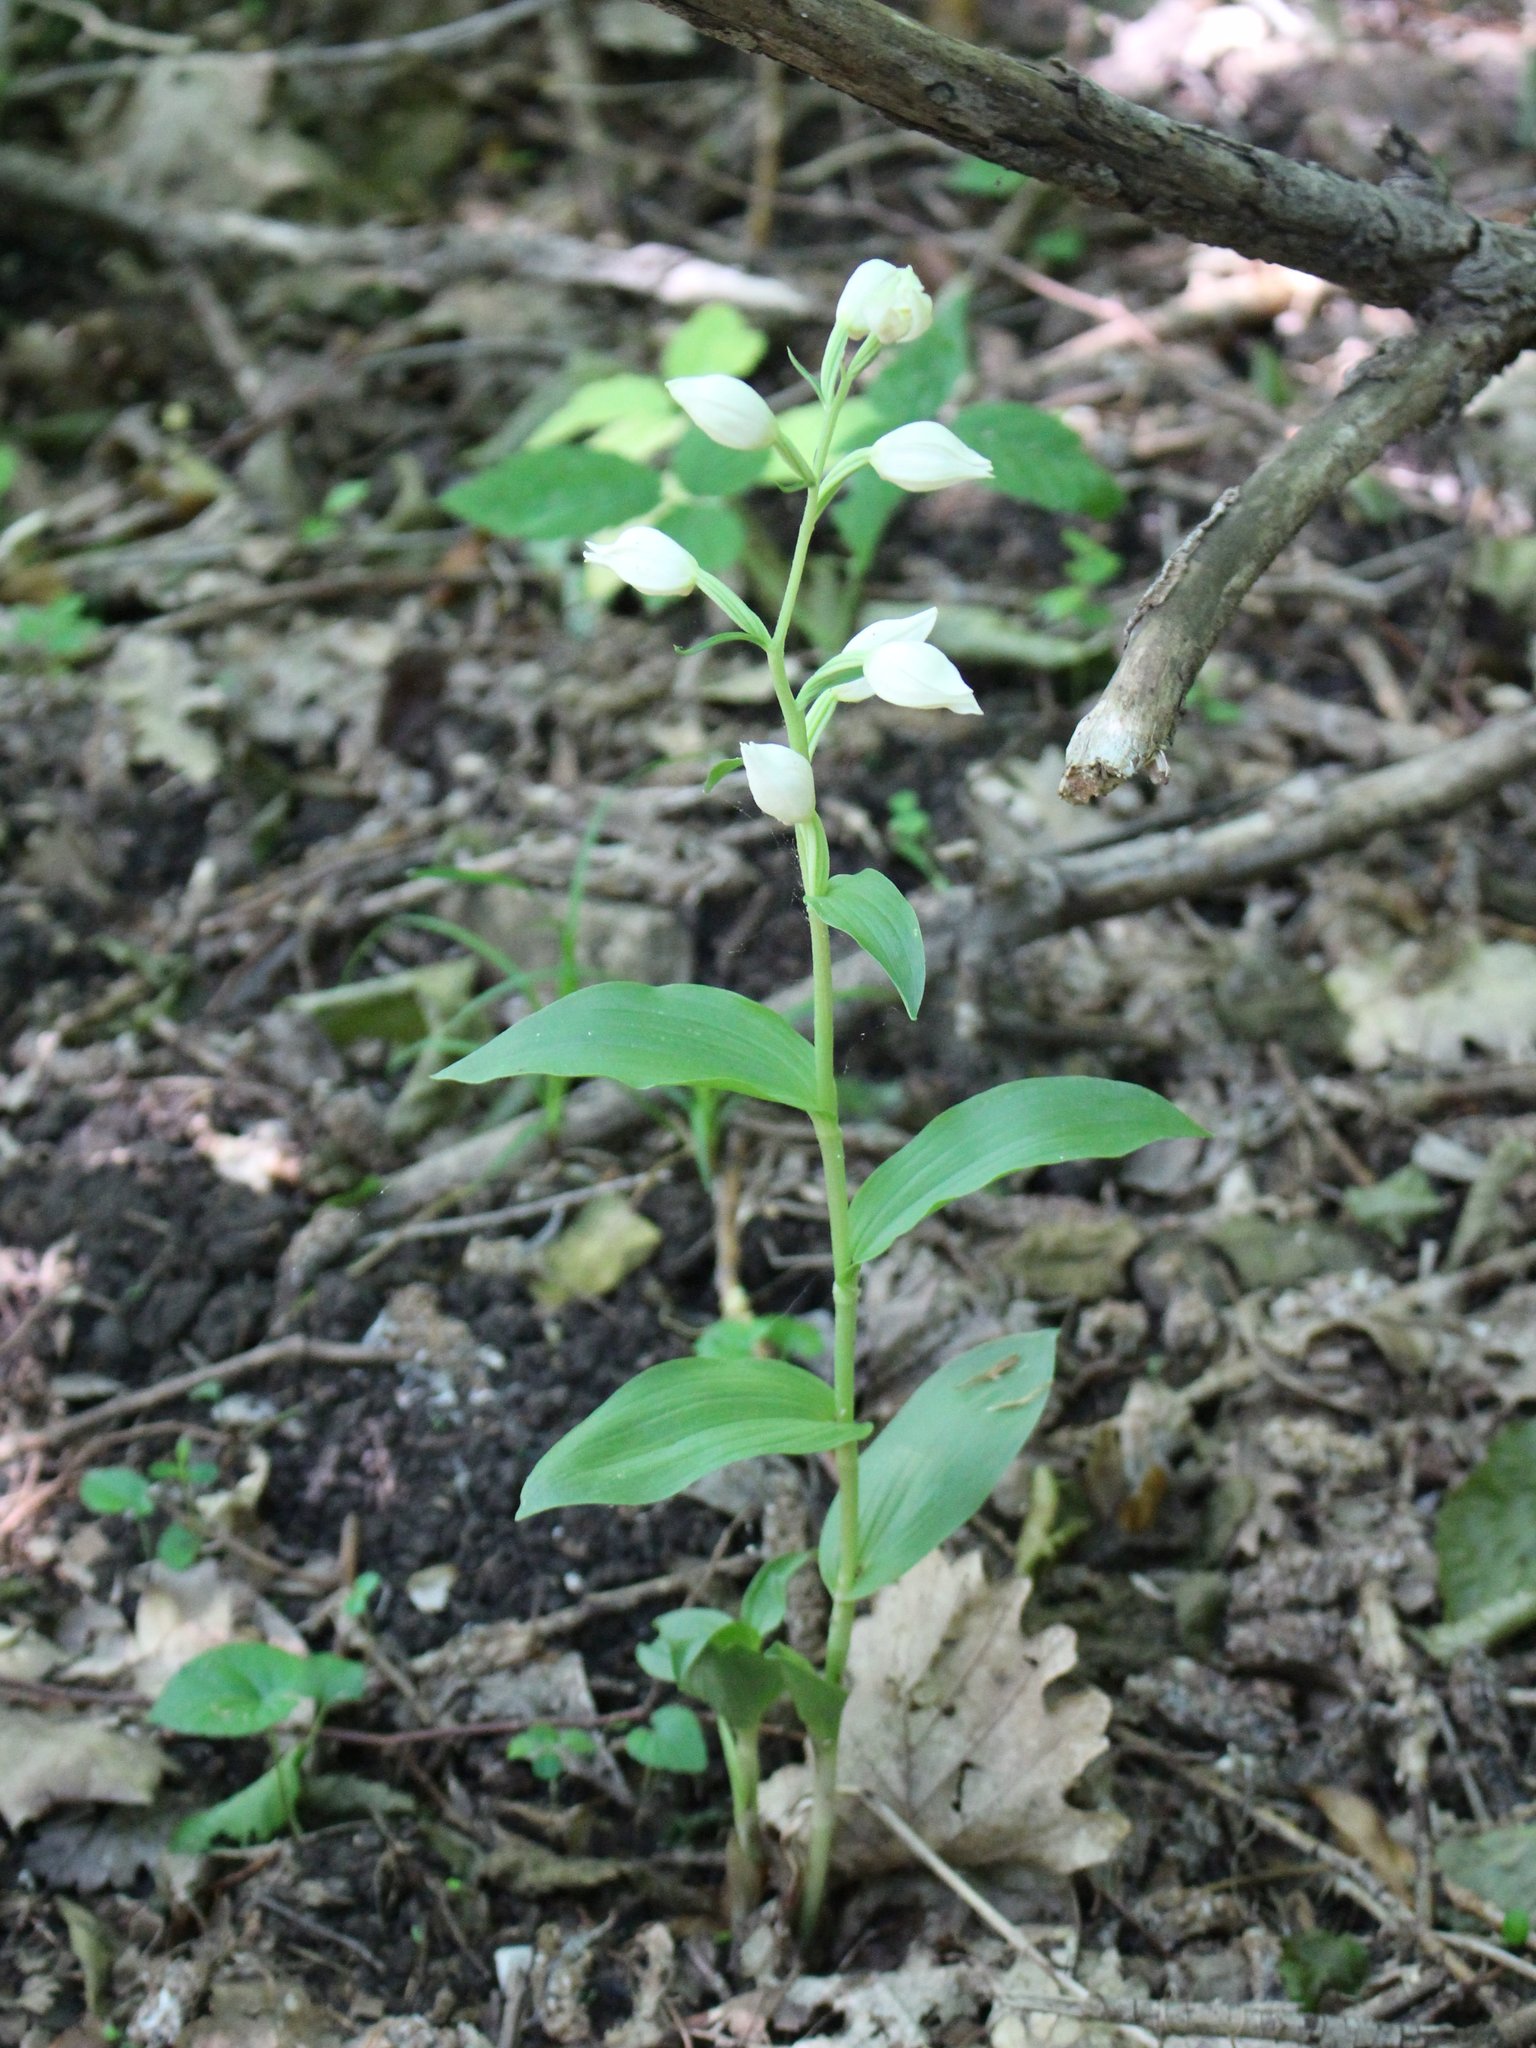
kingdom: Plantae
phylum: Tracheophyta
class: Liliopsida
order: Asparagales
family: Orchidaceae
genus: Cephalanthera
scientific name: Cephalanthera damasonium
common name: White helleborine
